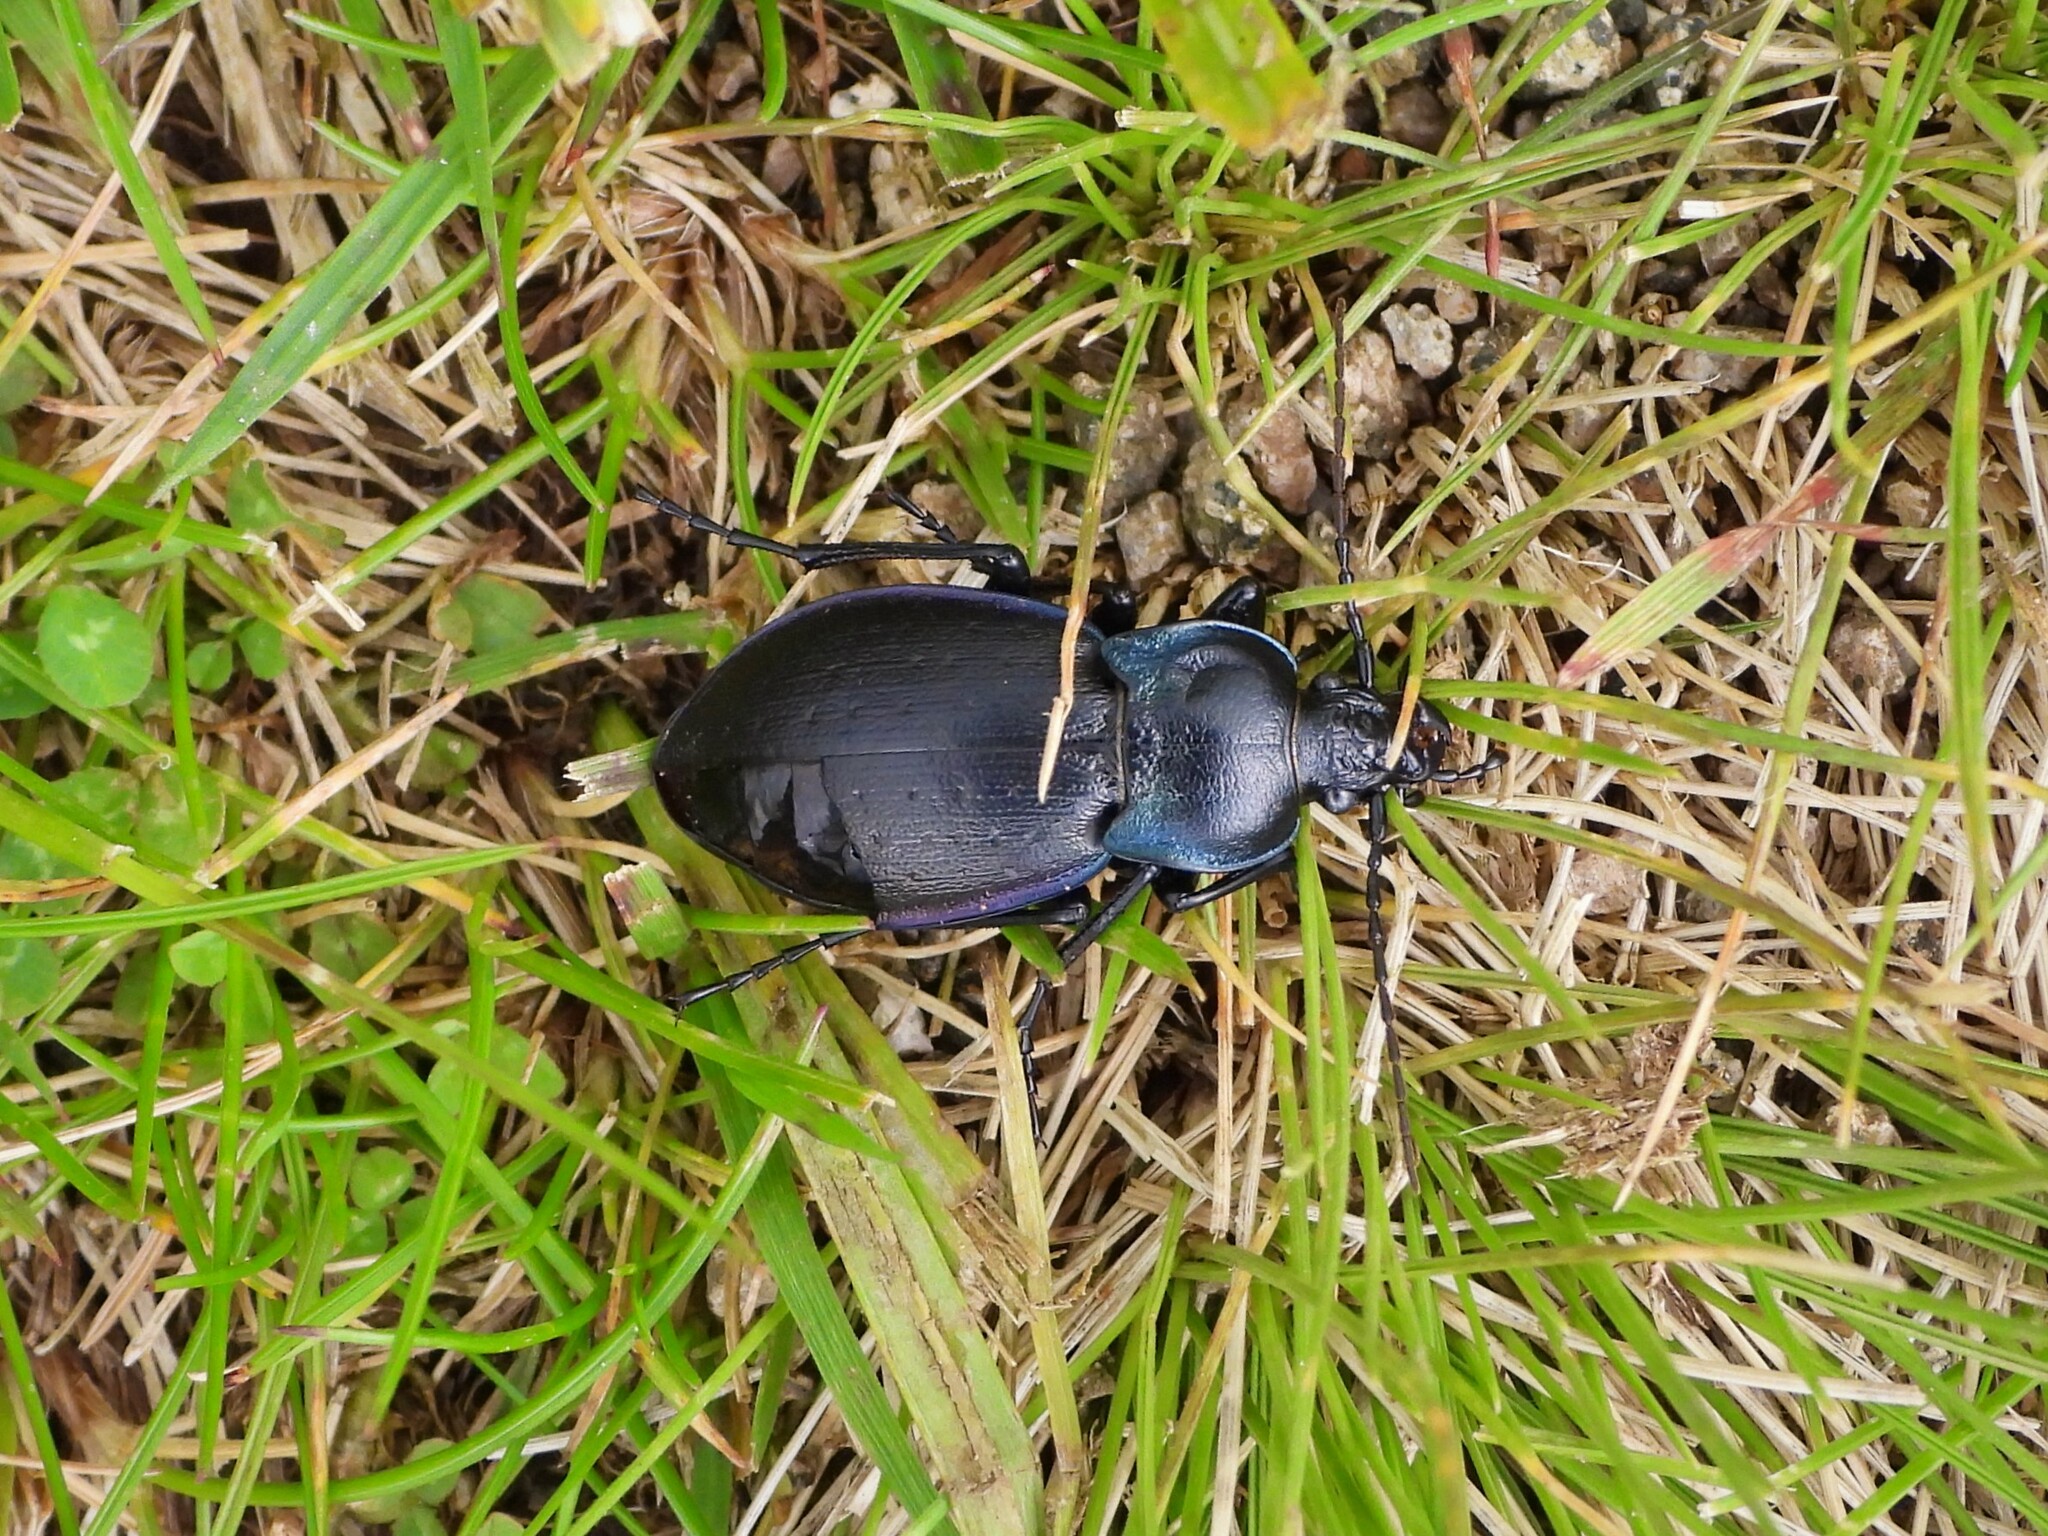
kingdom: Animalia
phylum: Arthropoda
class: Insecta
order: Coleoptera
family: Carabidae
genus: Carabus
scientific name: Carabus monticola
